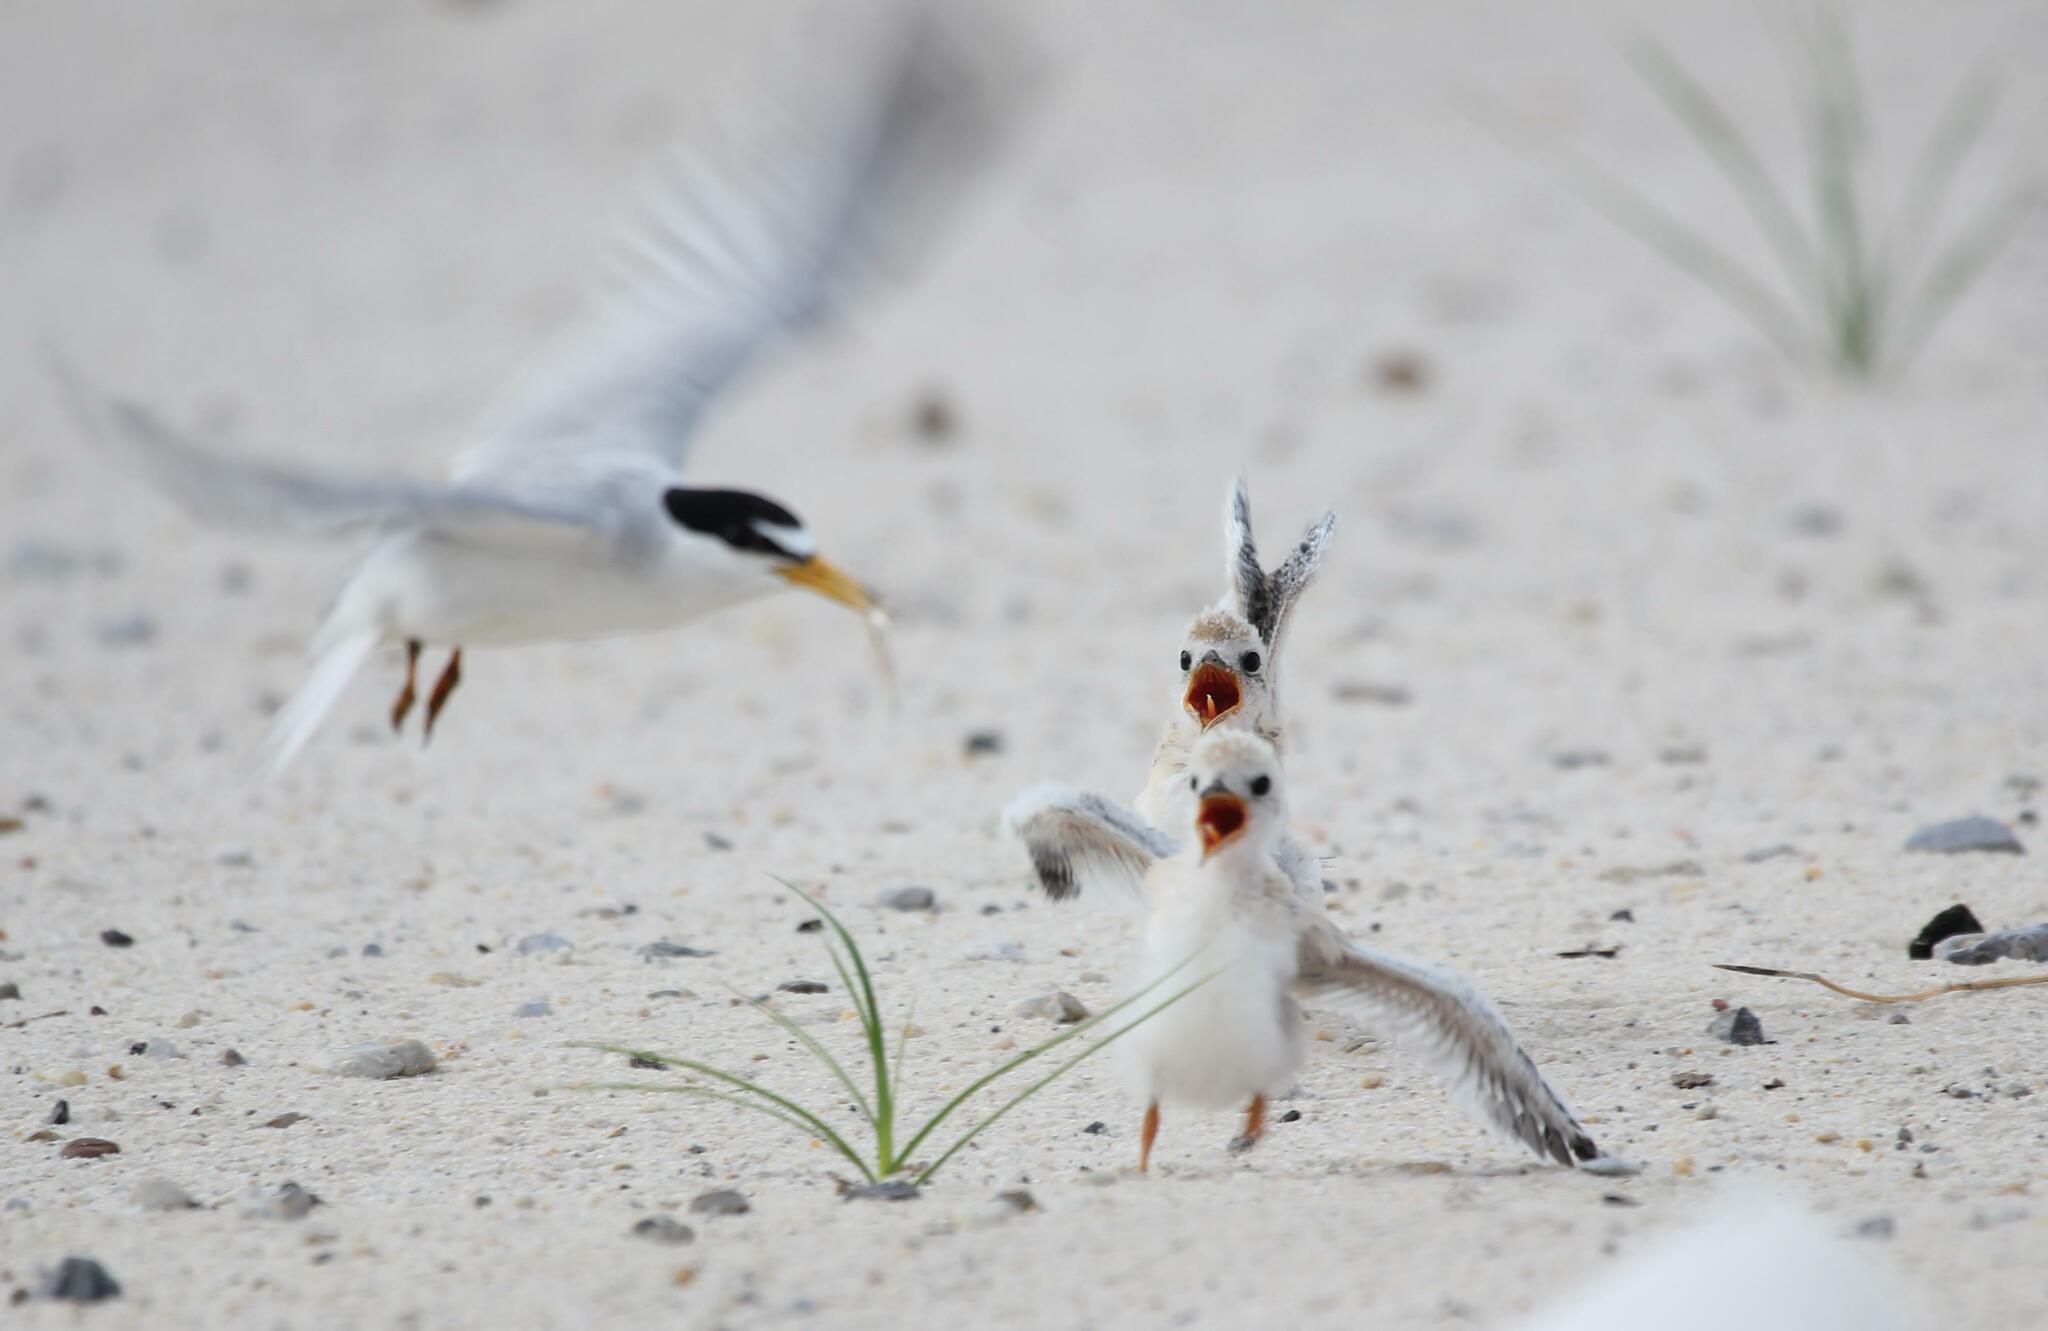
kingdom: Animalia
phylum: Chordata
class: Aves
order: Charadriiformes
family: Laridae
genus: Sternula
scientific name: Sternula antillarum
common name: Least tern
